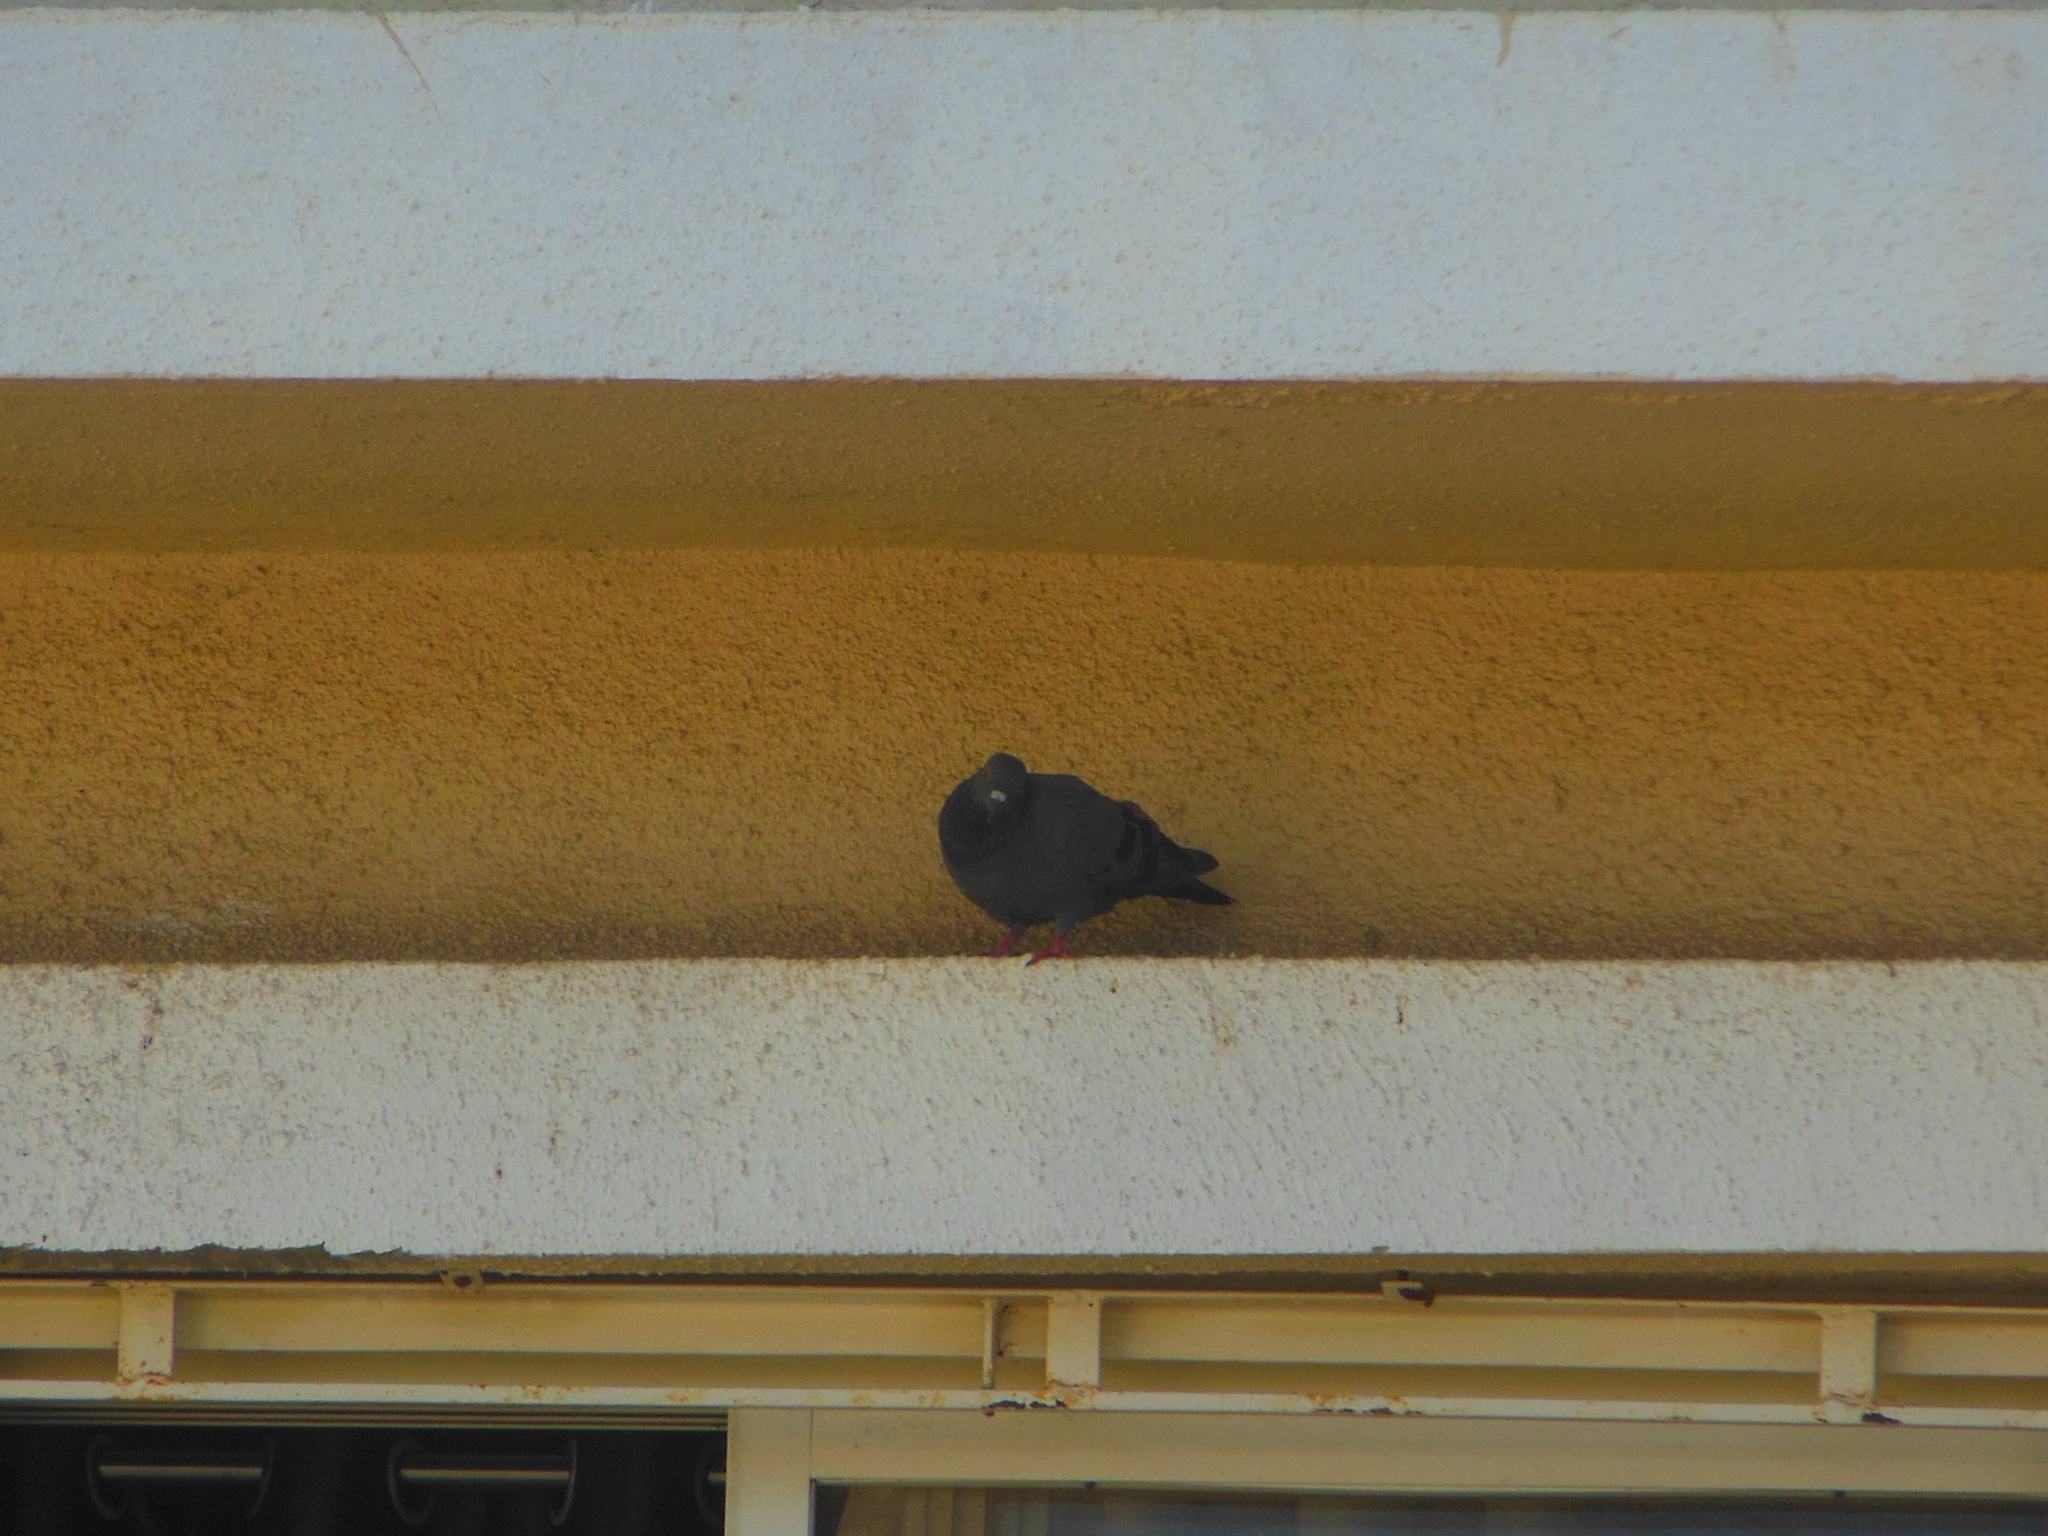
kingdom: Animalia
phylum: Chordata
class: Aves
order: Columbiformes
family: Columbidae
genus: Columba
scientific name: Columba livia
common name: Rock pigeon
